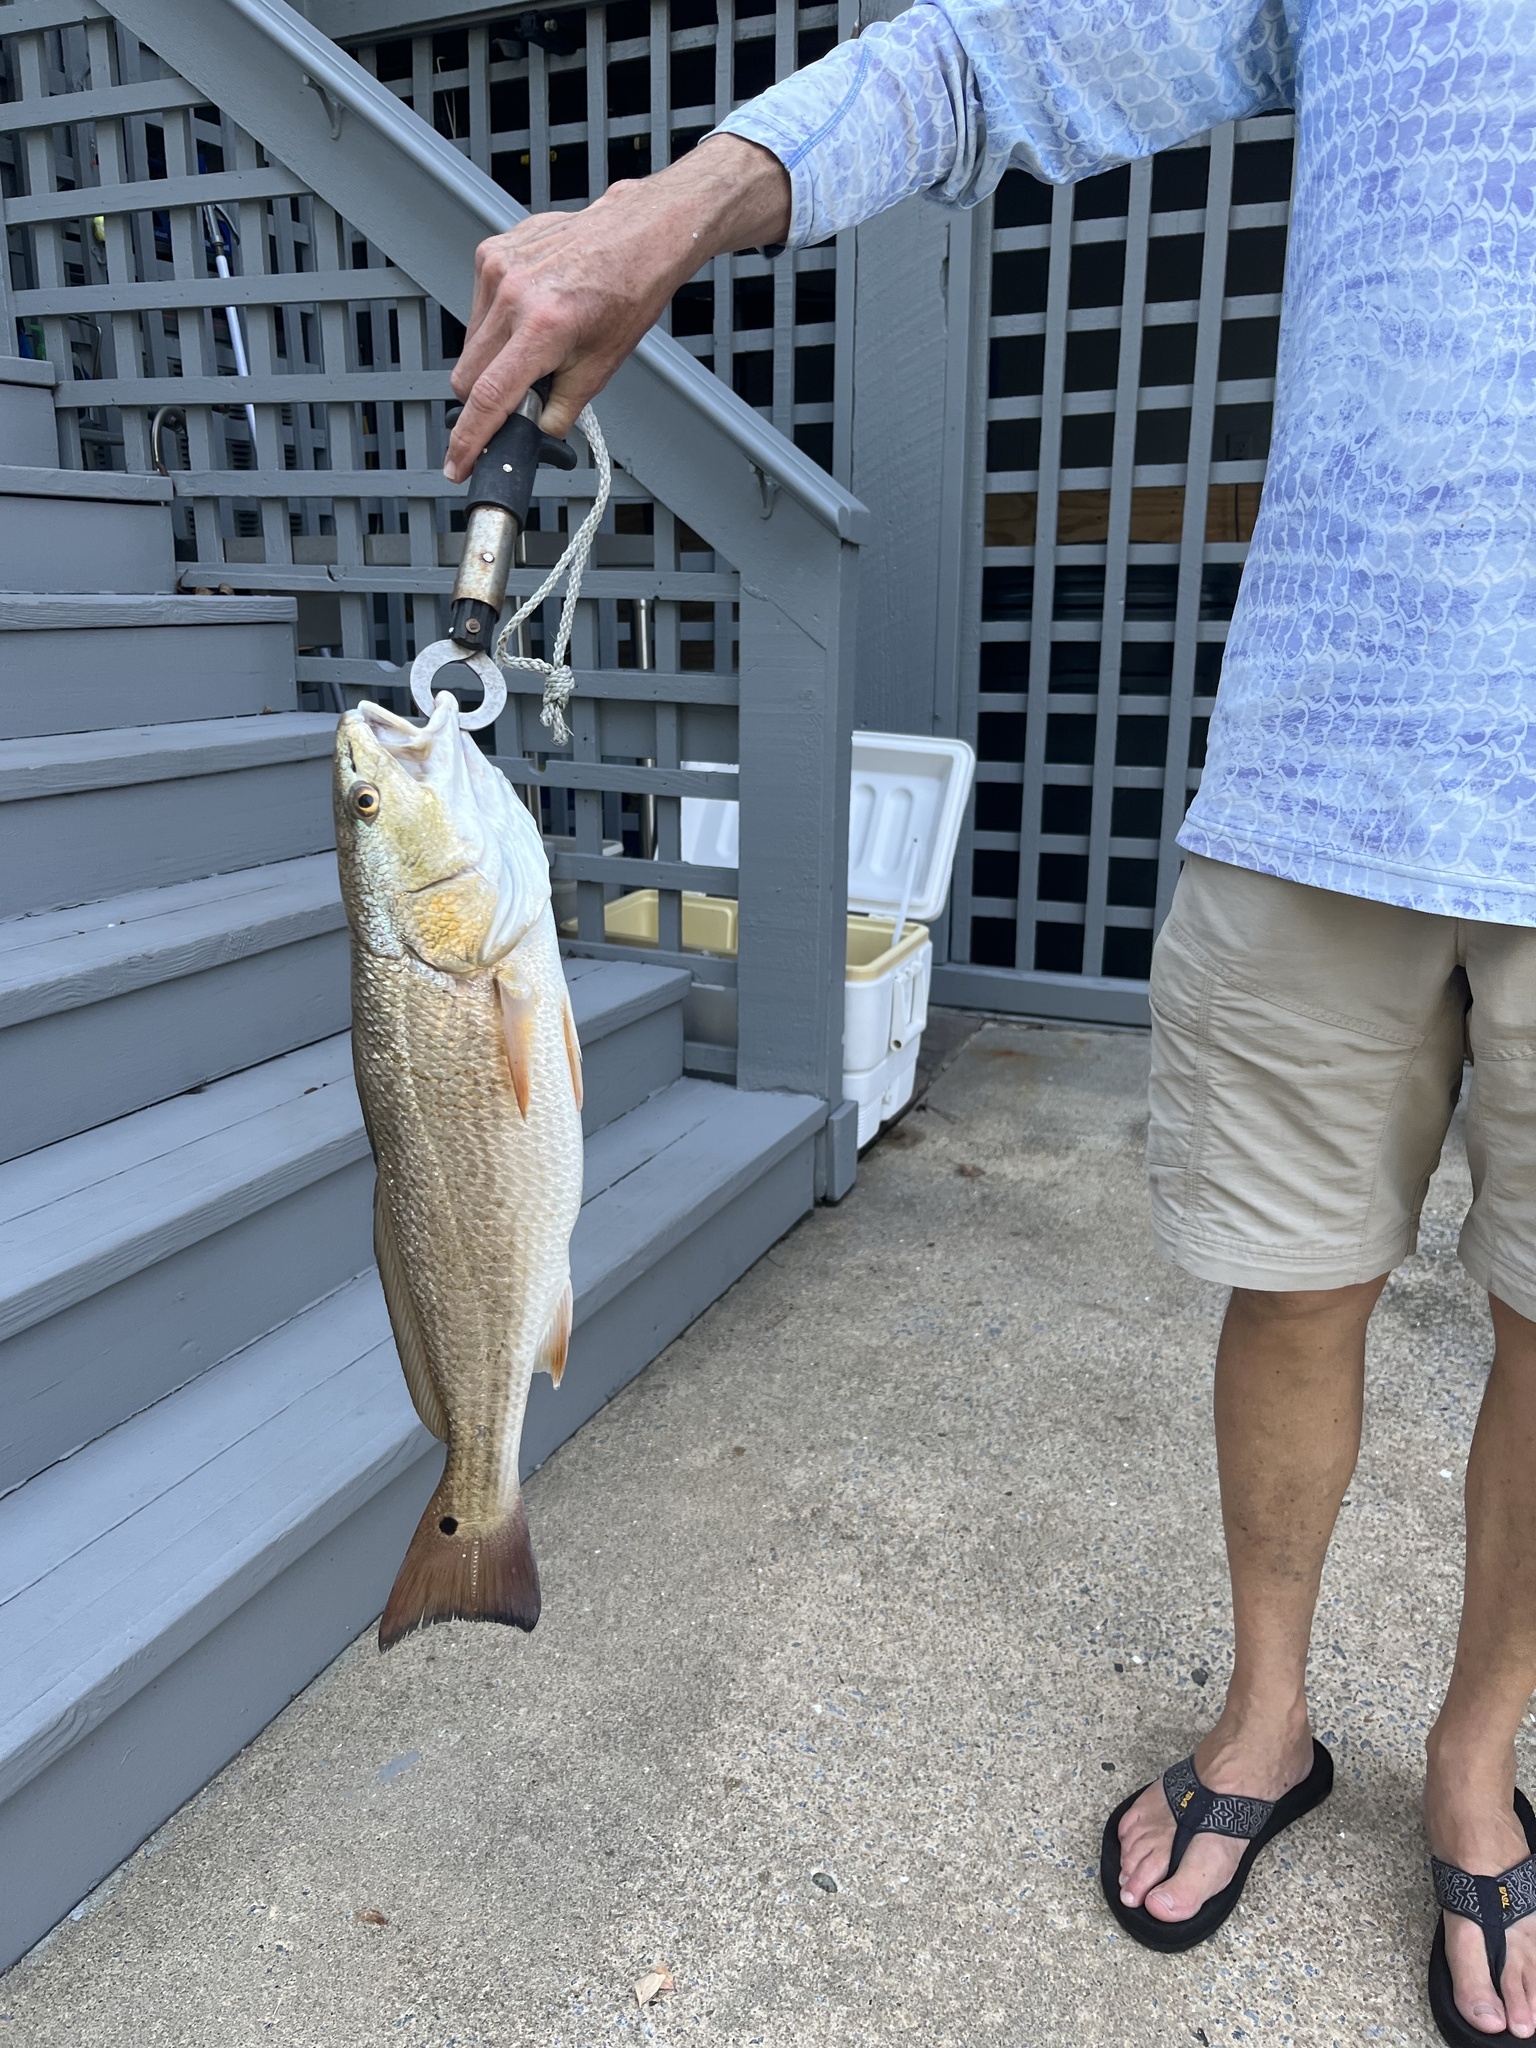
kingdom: Animalia
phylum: Chordata
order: Perciformes
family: Sciaenidae
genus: Sciaenops
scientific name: Sciaenops ocellatus
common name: Red drum
